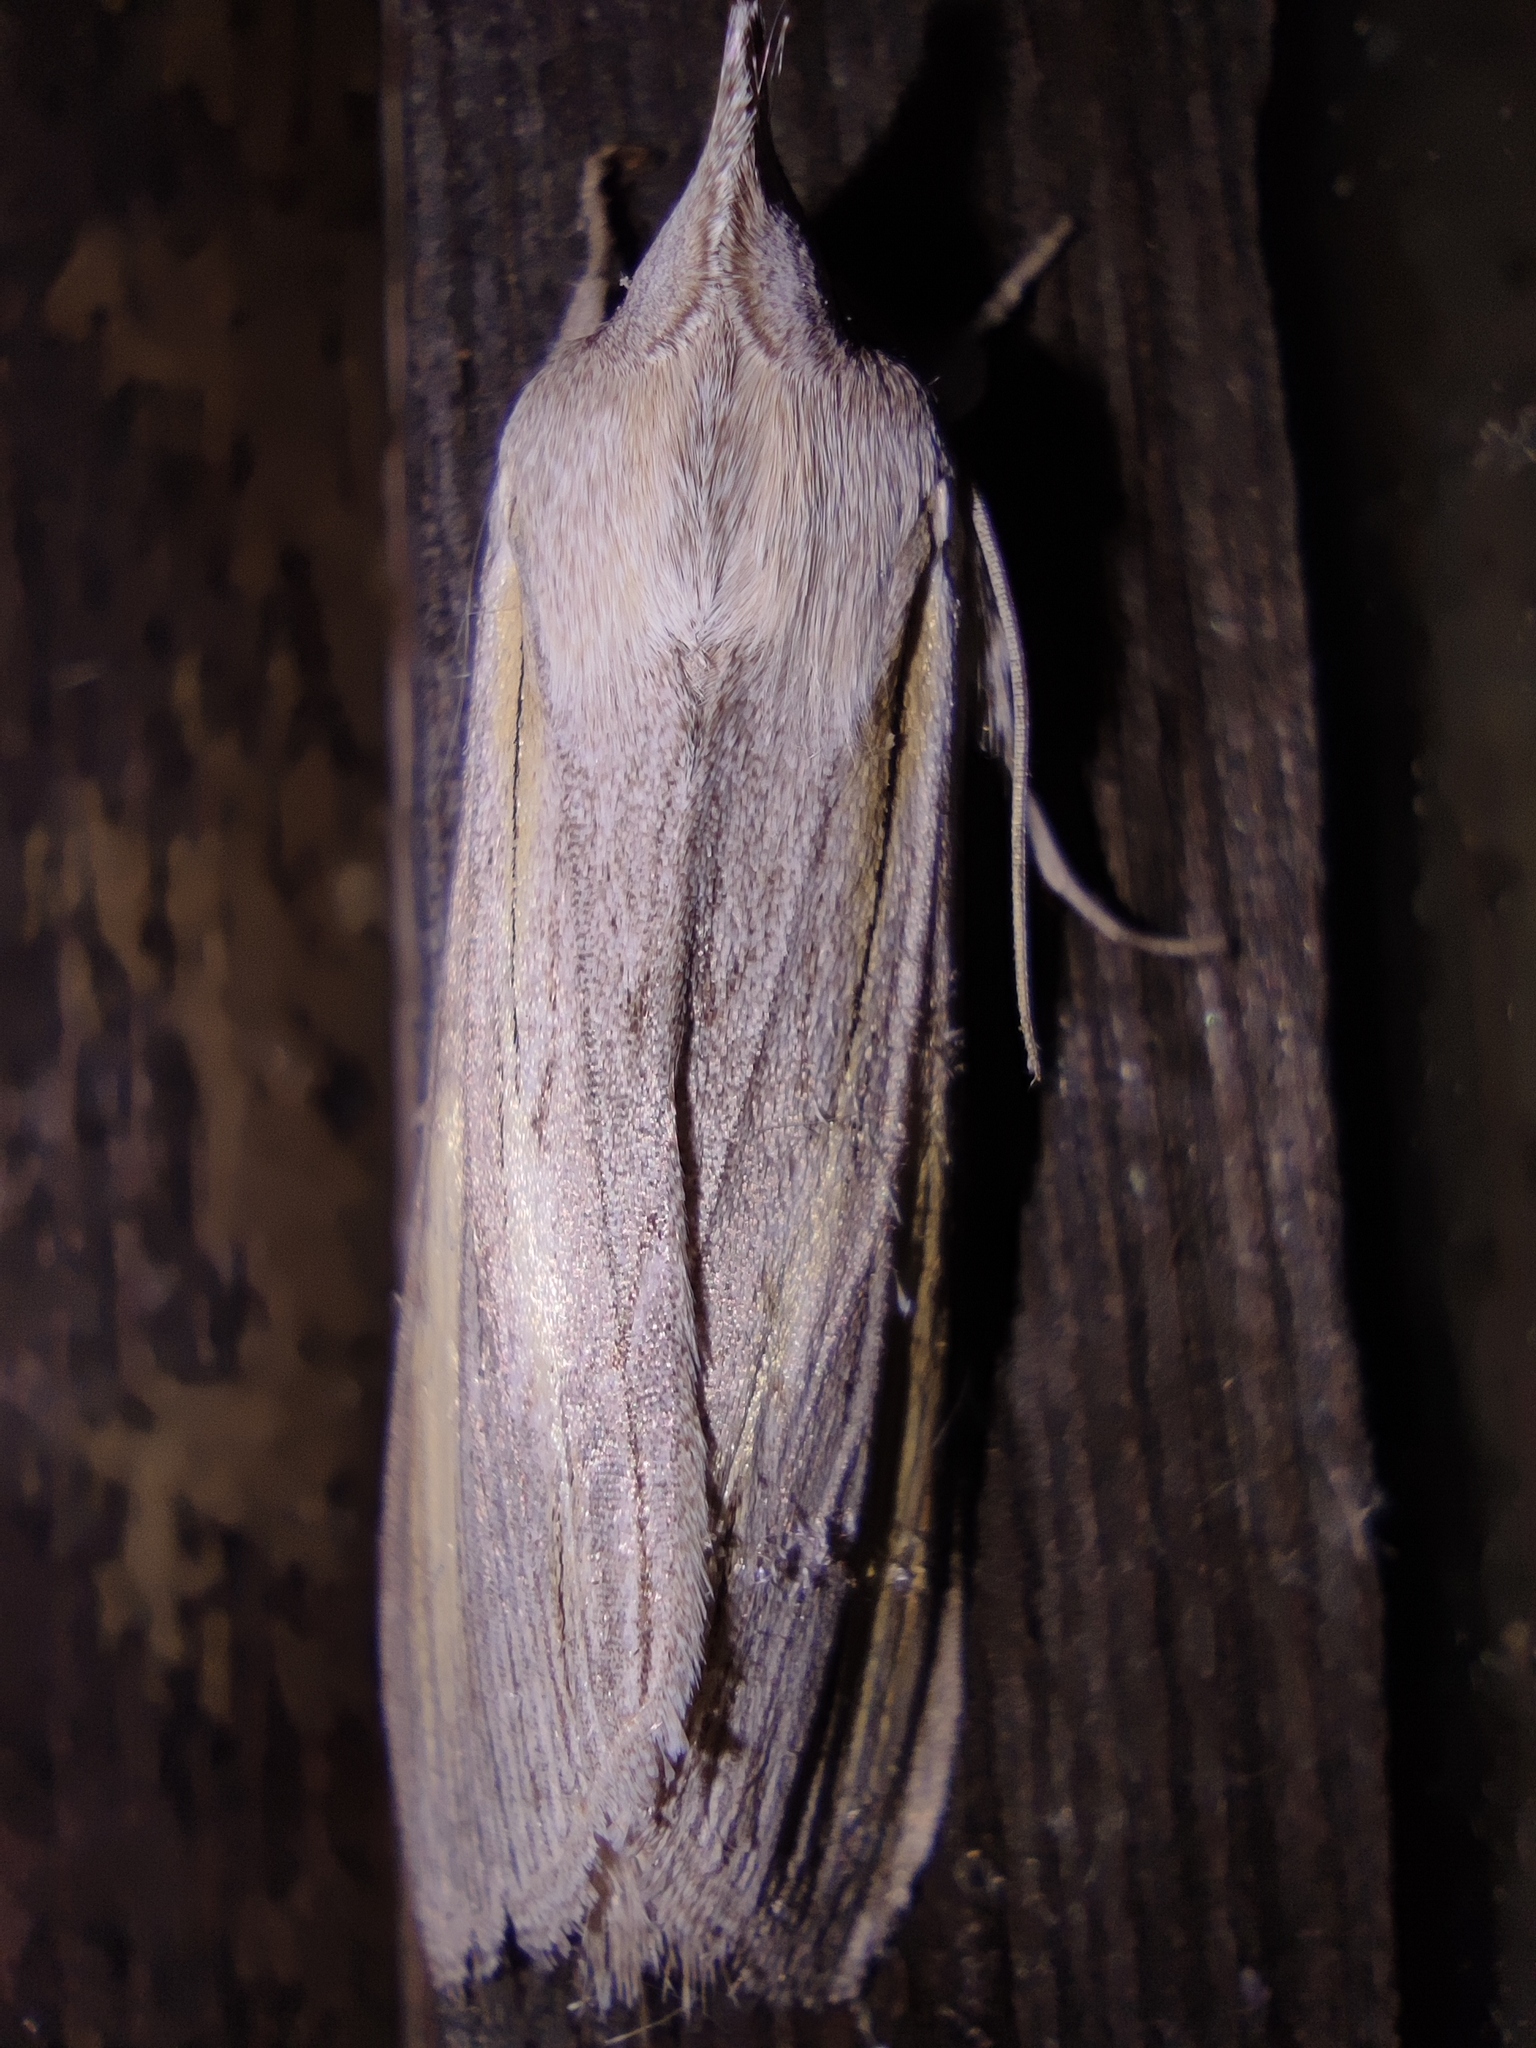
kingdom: Animalia
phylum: Arthropoda
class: Insecta
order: Lepidoptera
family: Noctuidae
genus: Cucullia
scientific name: Cucullia biornata
